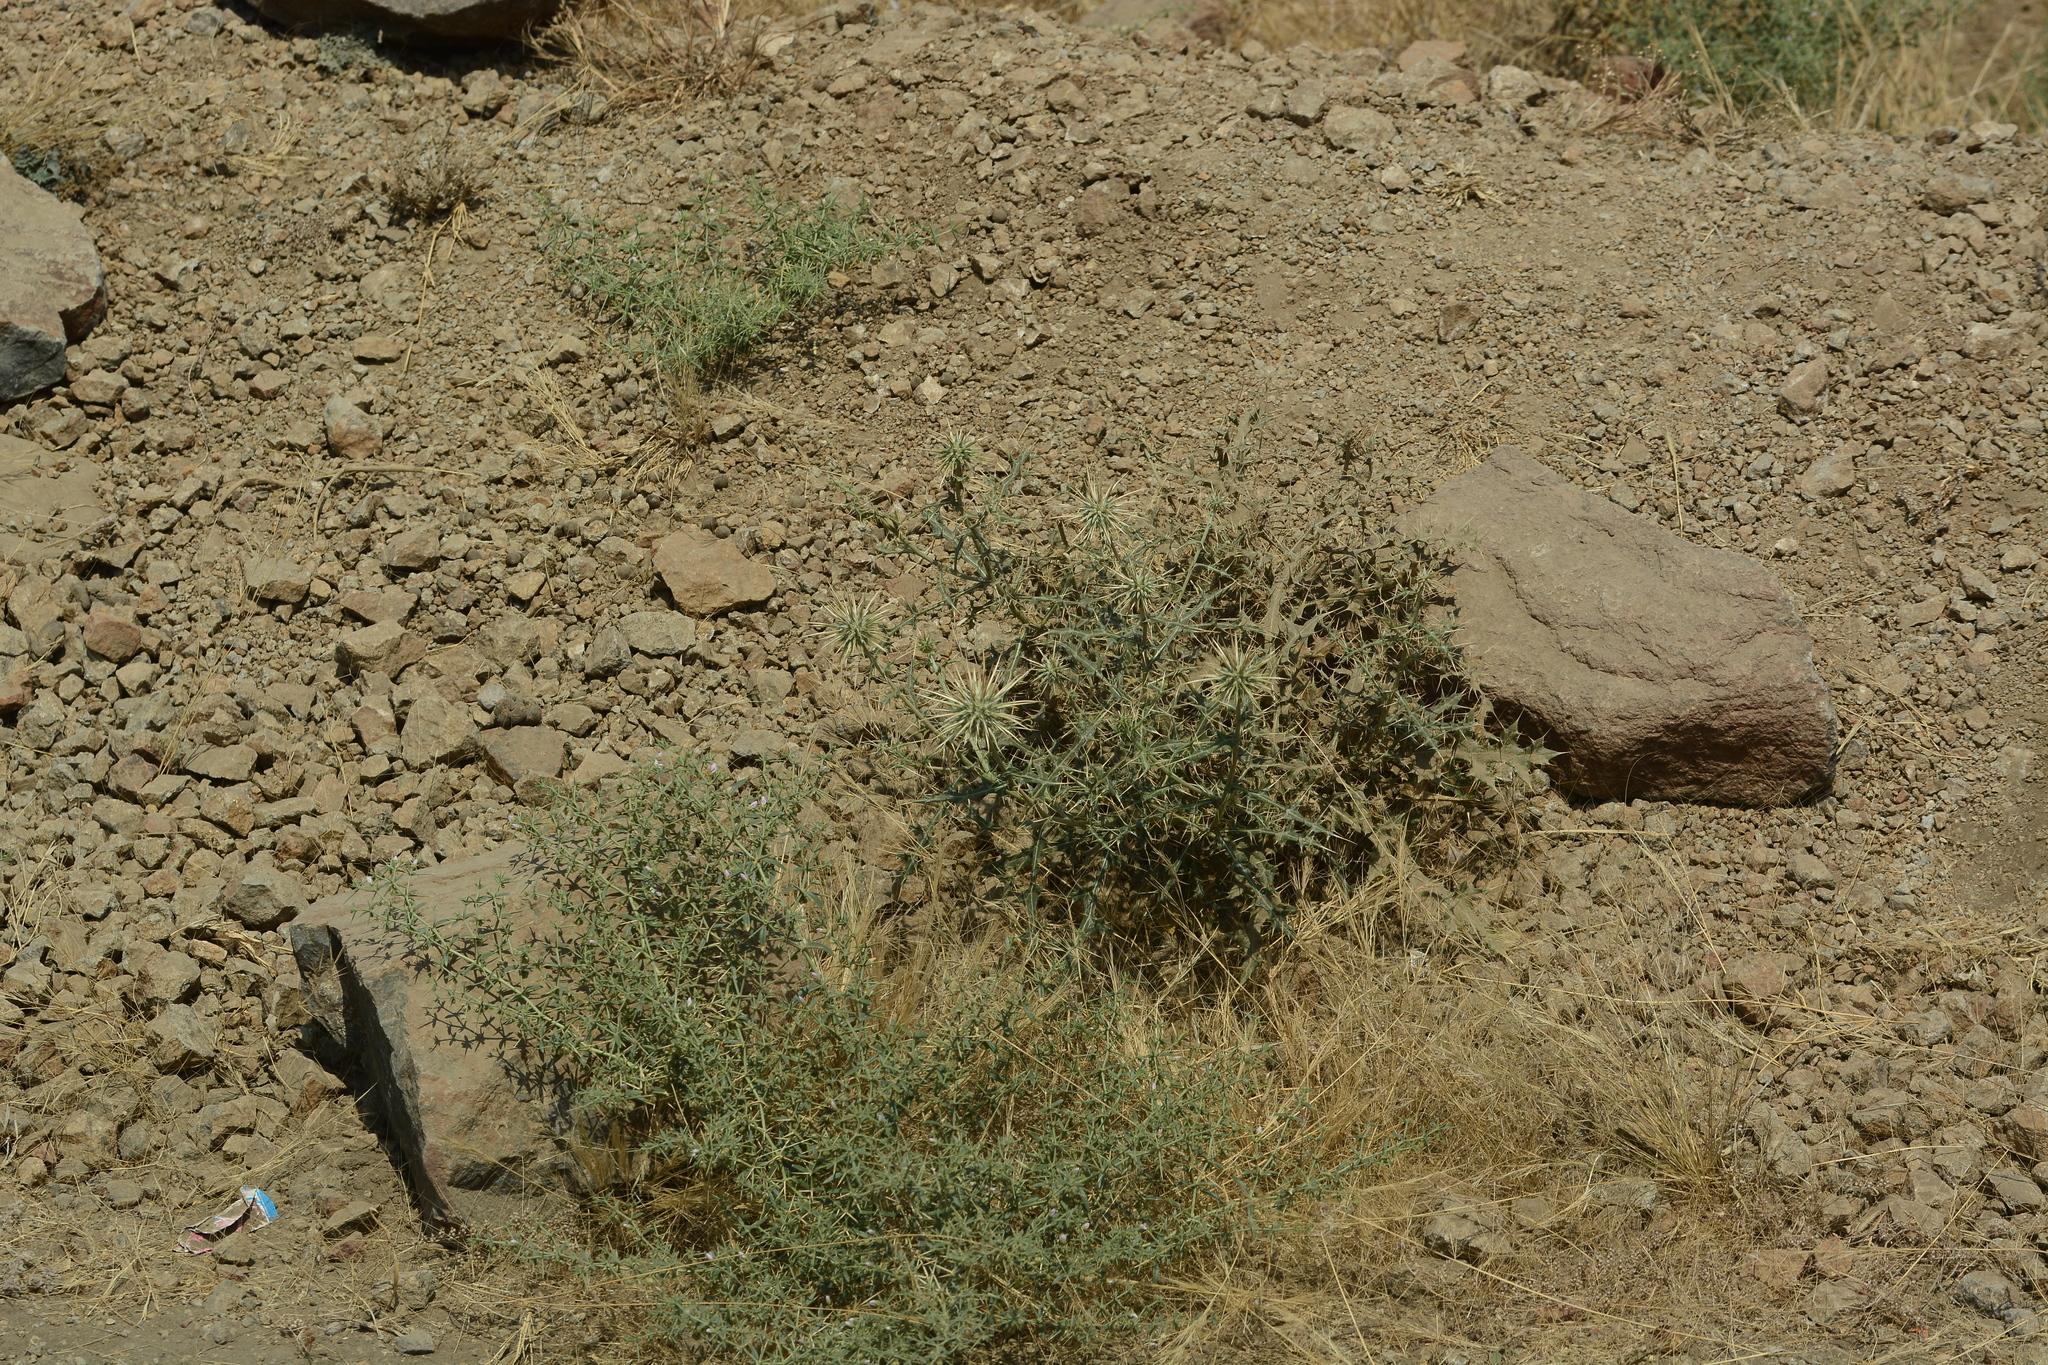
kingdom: Plantae
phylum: Tracheophyta
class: Magnoliopsida
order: Asterales
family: Asteraceae
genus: Echinops
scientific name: Echinops echinatus
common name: Indian globe thistle
